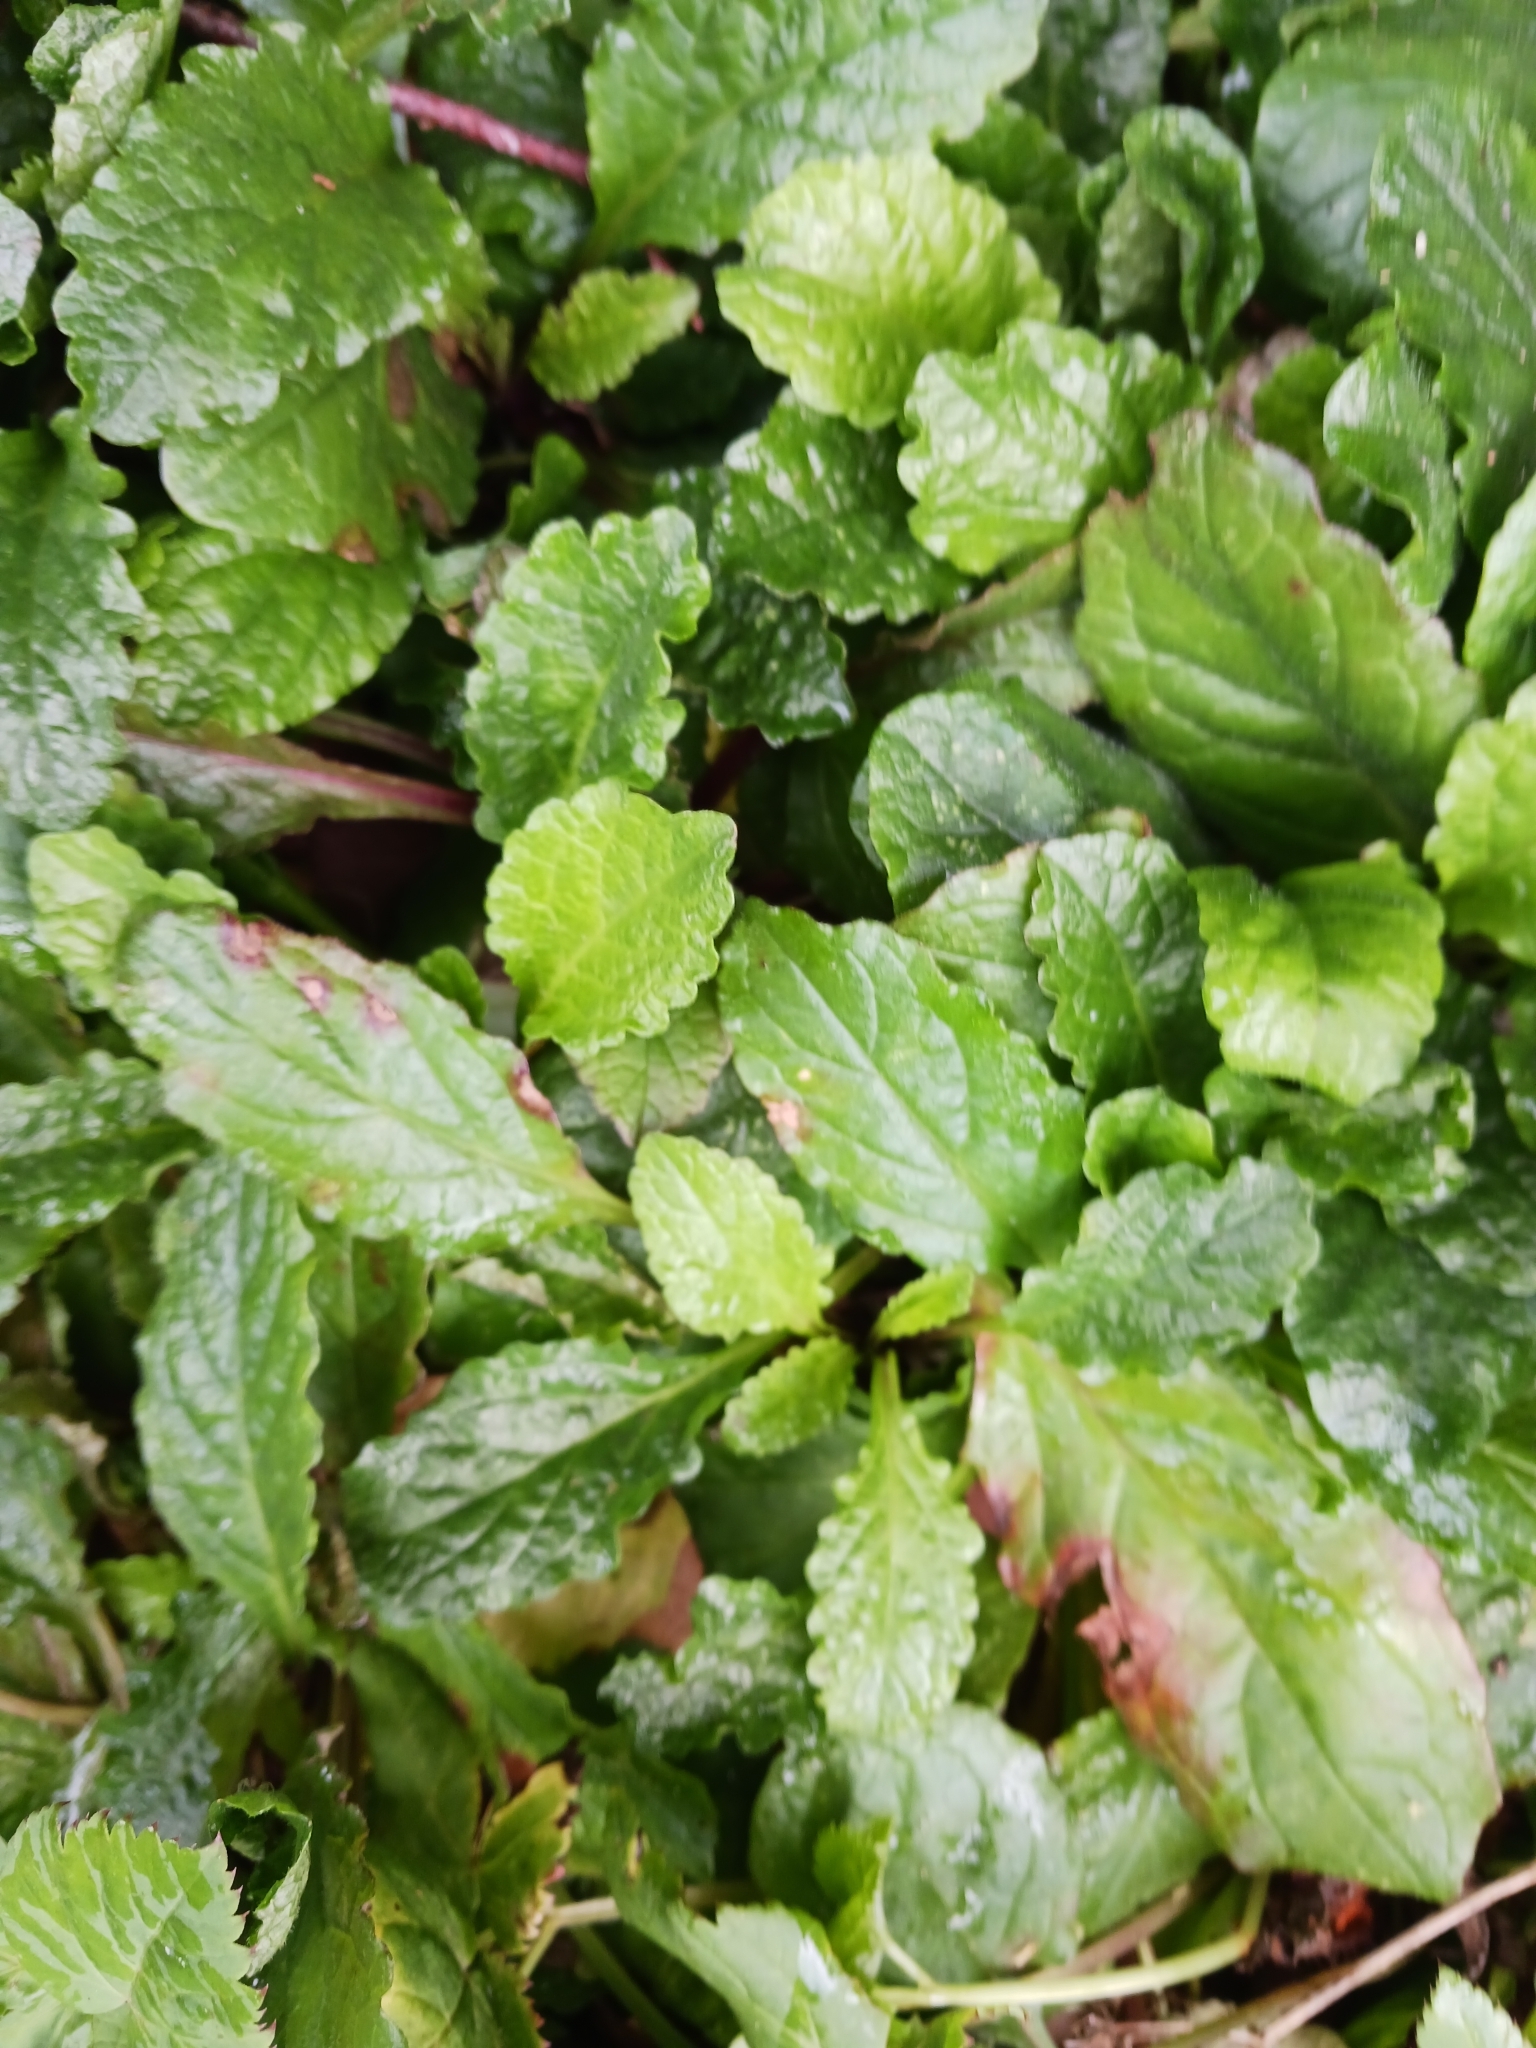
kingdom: Plantae
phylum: Tracheophyta
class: Magnoliopsida
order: Lamiales
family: Lamiaceae
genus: Ajuga
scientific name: Ajuga reptans
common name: Bugle
